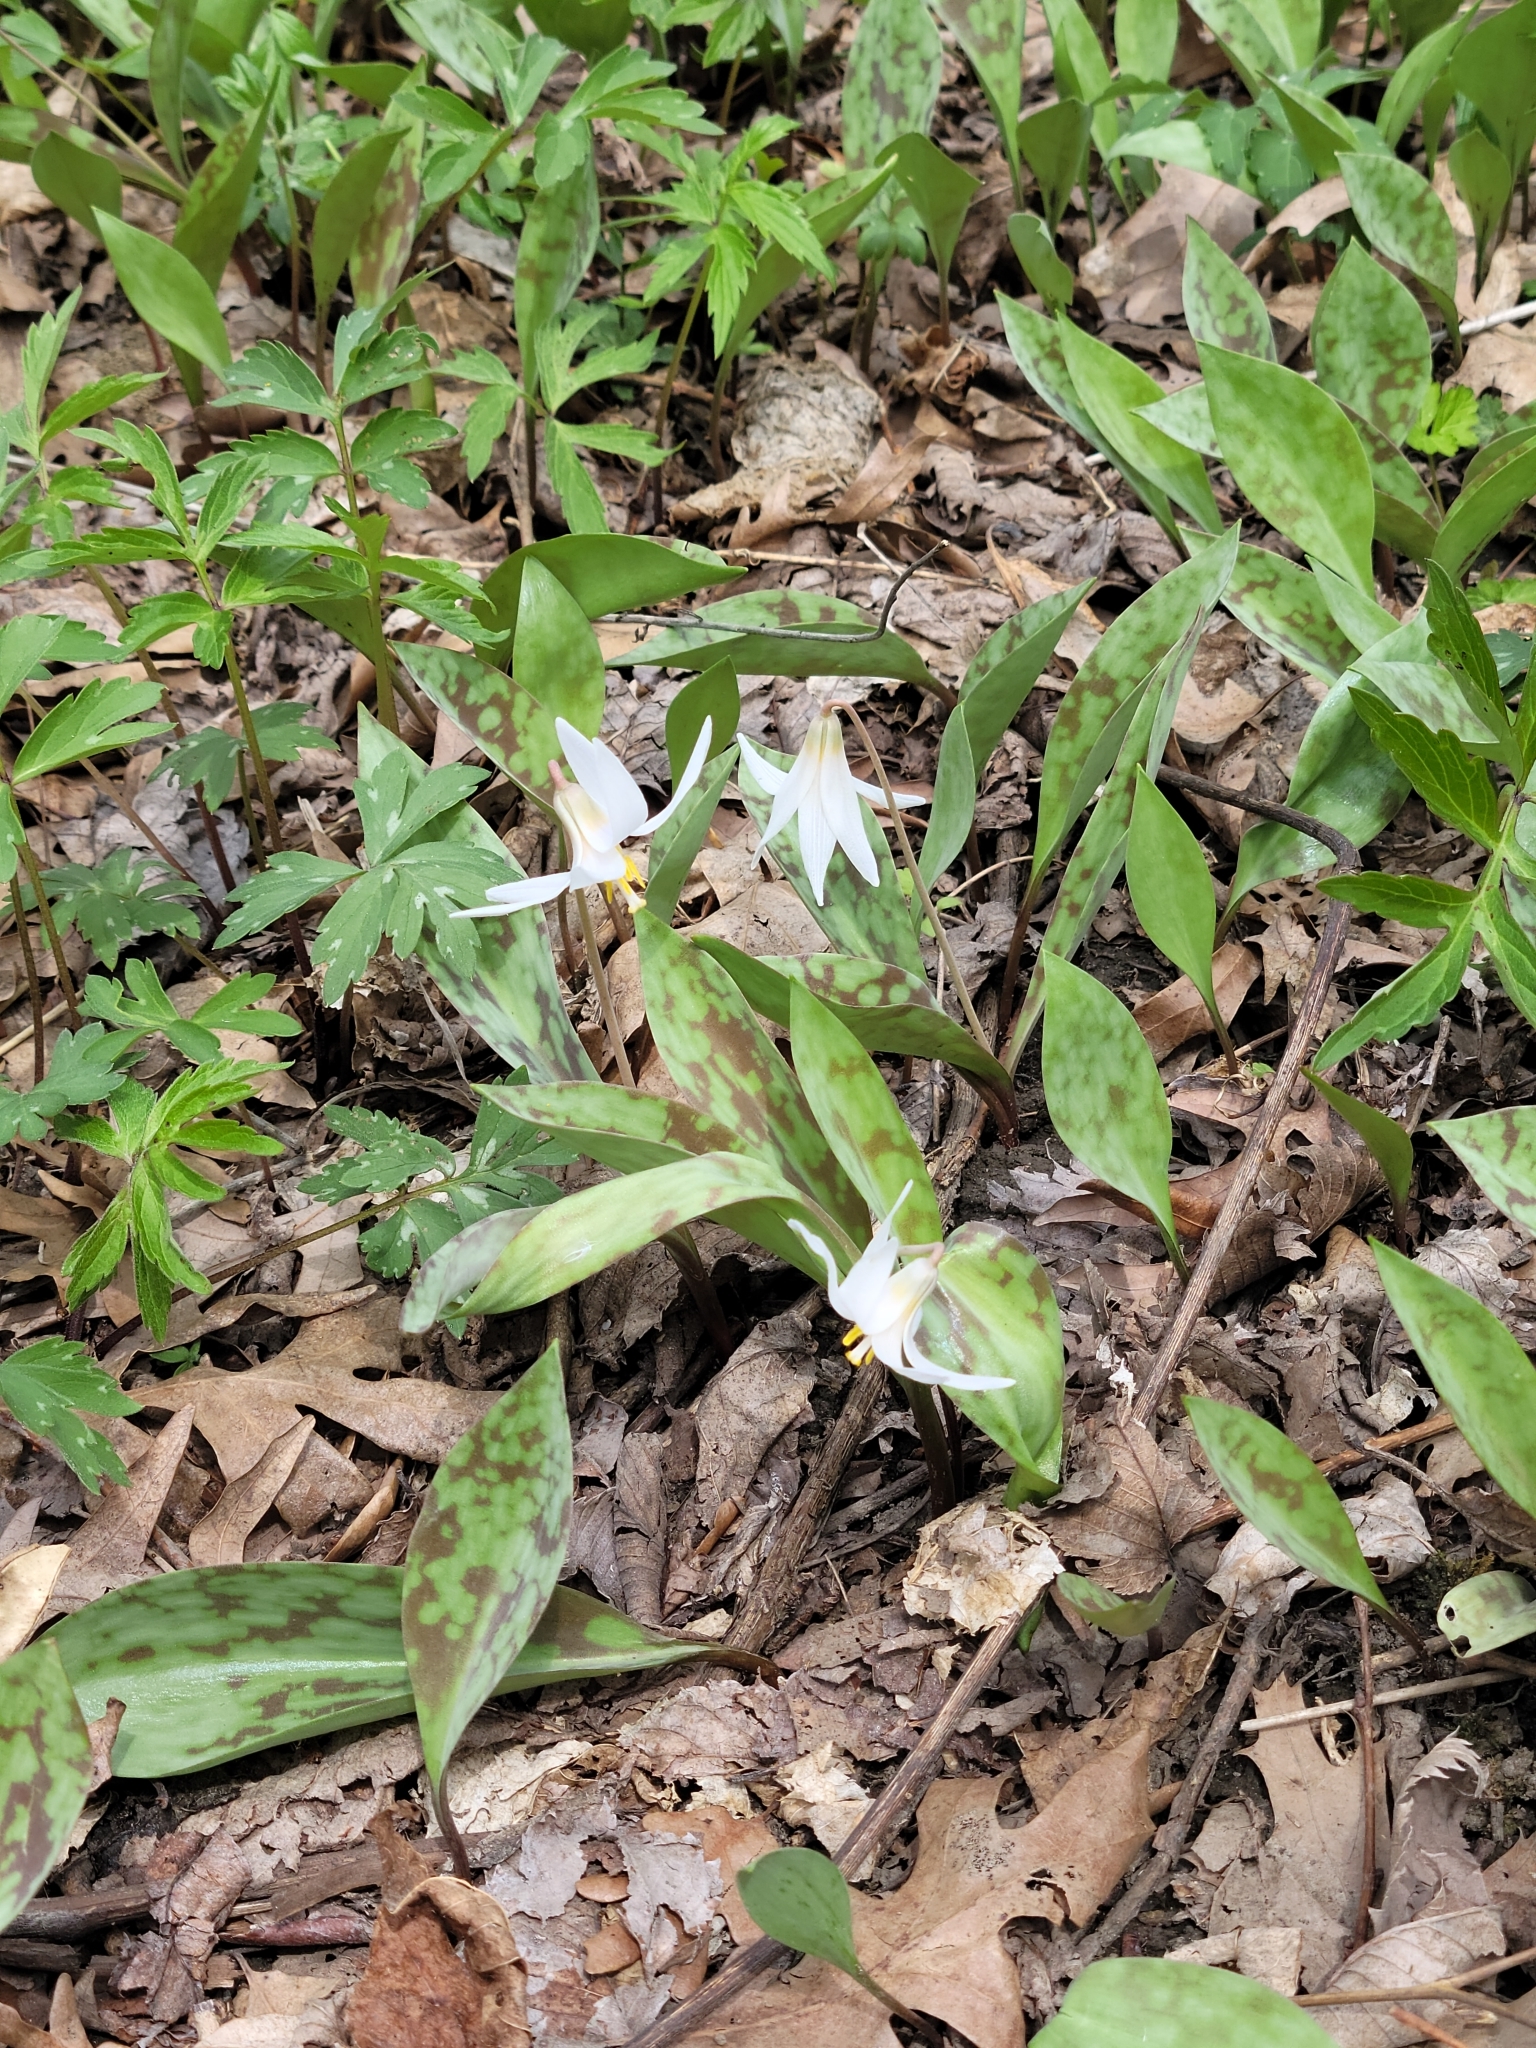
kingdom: Plantae
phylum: Tracheophyta
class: Liliopsida
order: Liliales
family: Liliaceae
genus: Erythronium
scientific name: Erythronium albidum
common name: White trout-lily
